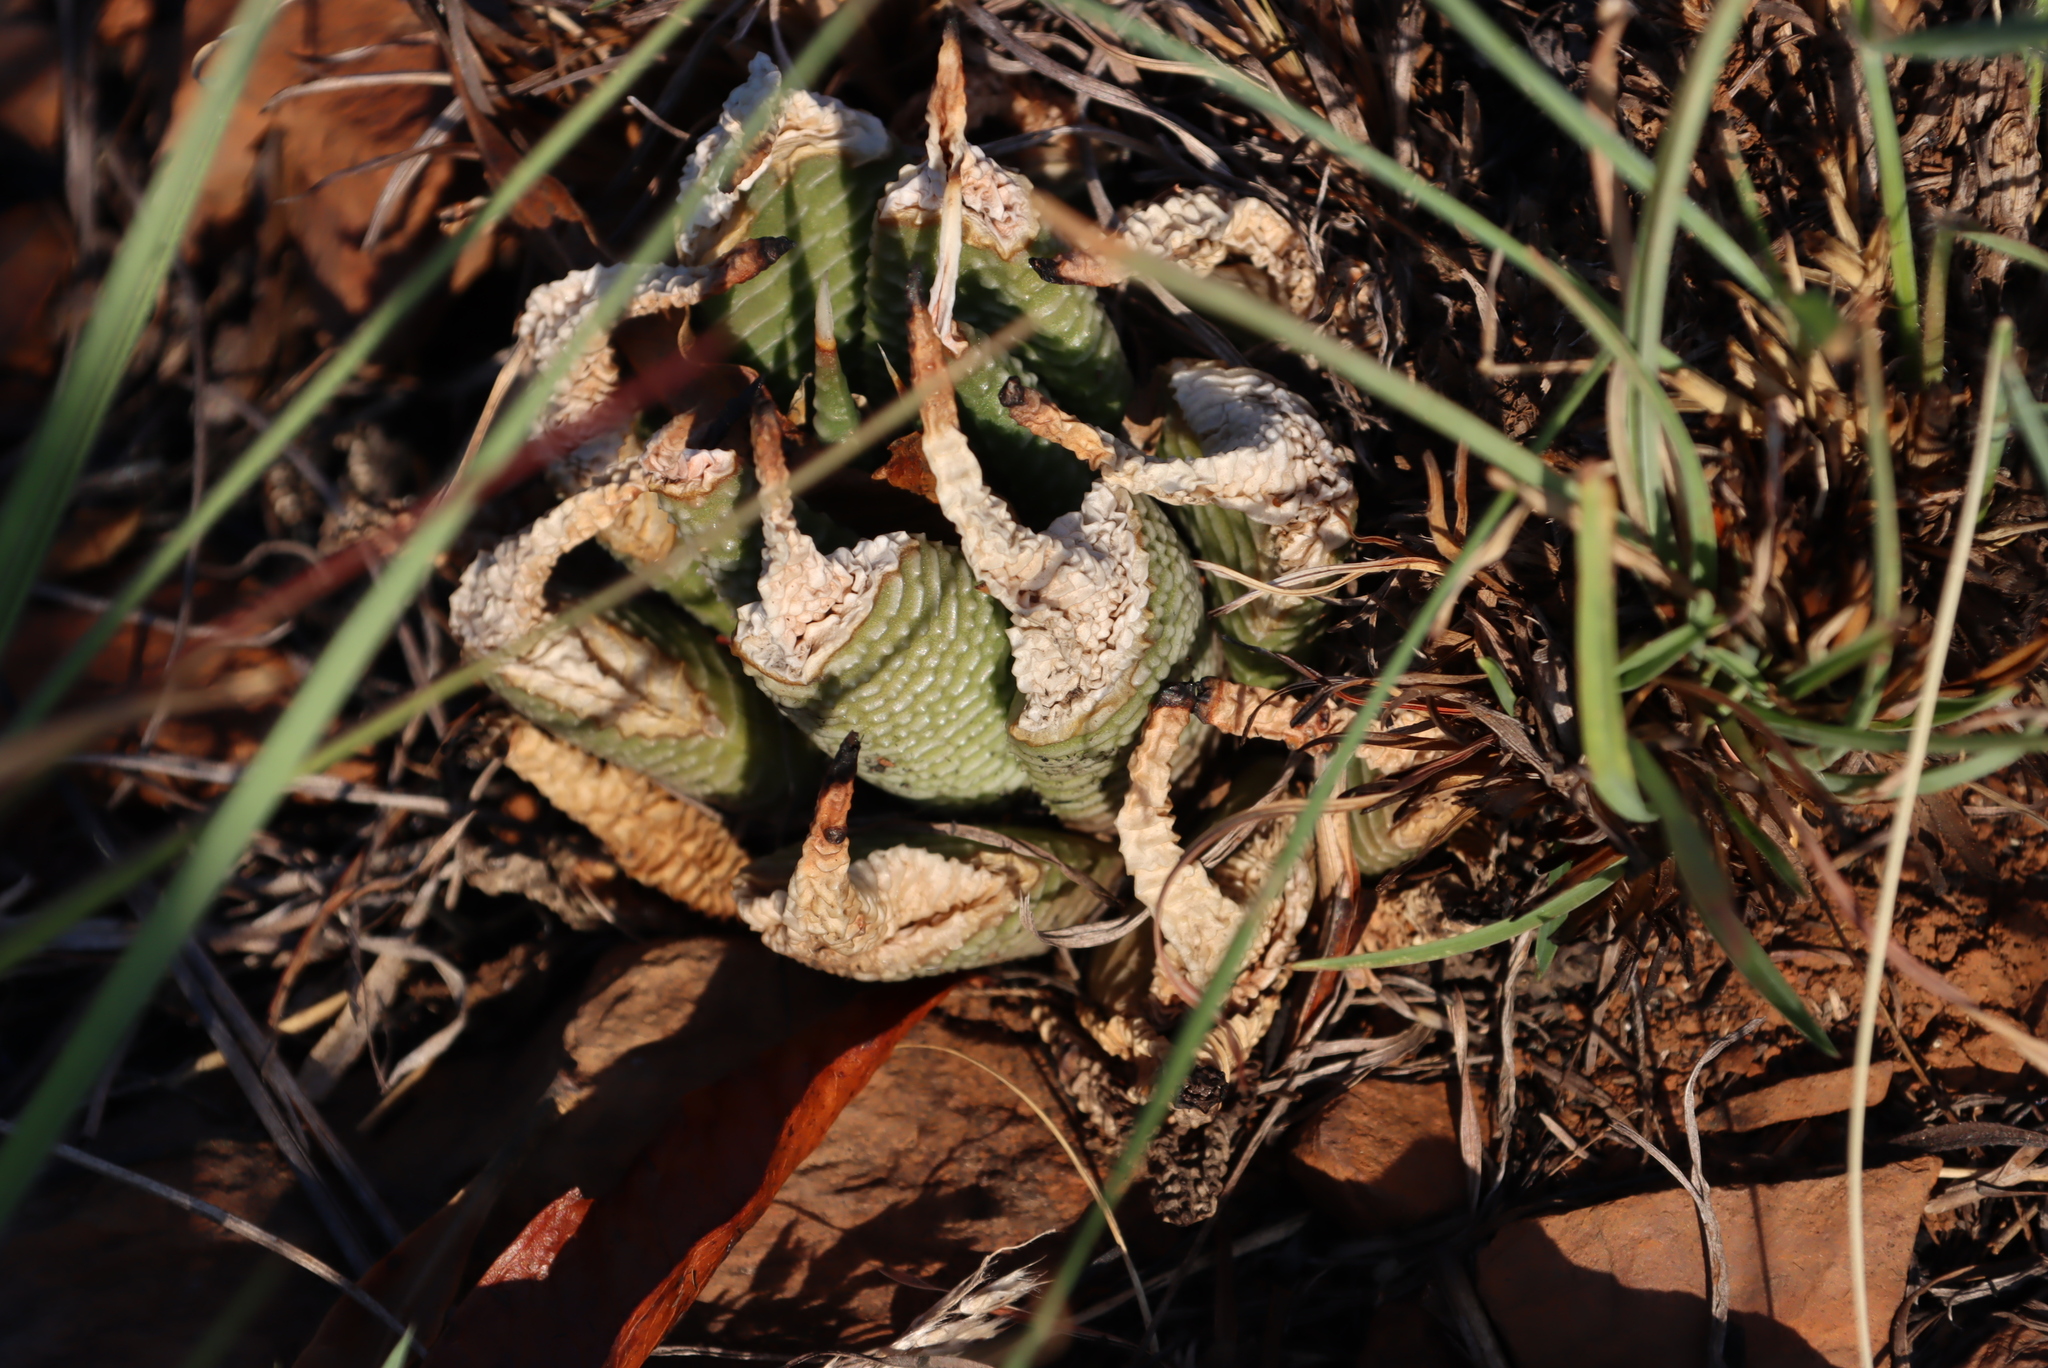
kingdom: Plantae
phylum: Tracheophyta
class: Liliopsida
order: Asparagales
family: Asphodelaceae
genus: Haworthiopsis
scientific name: Haworthiopsis limifolia
